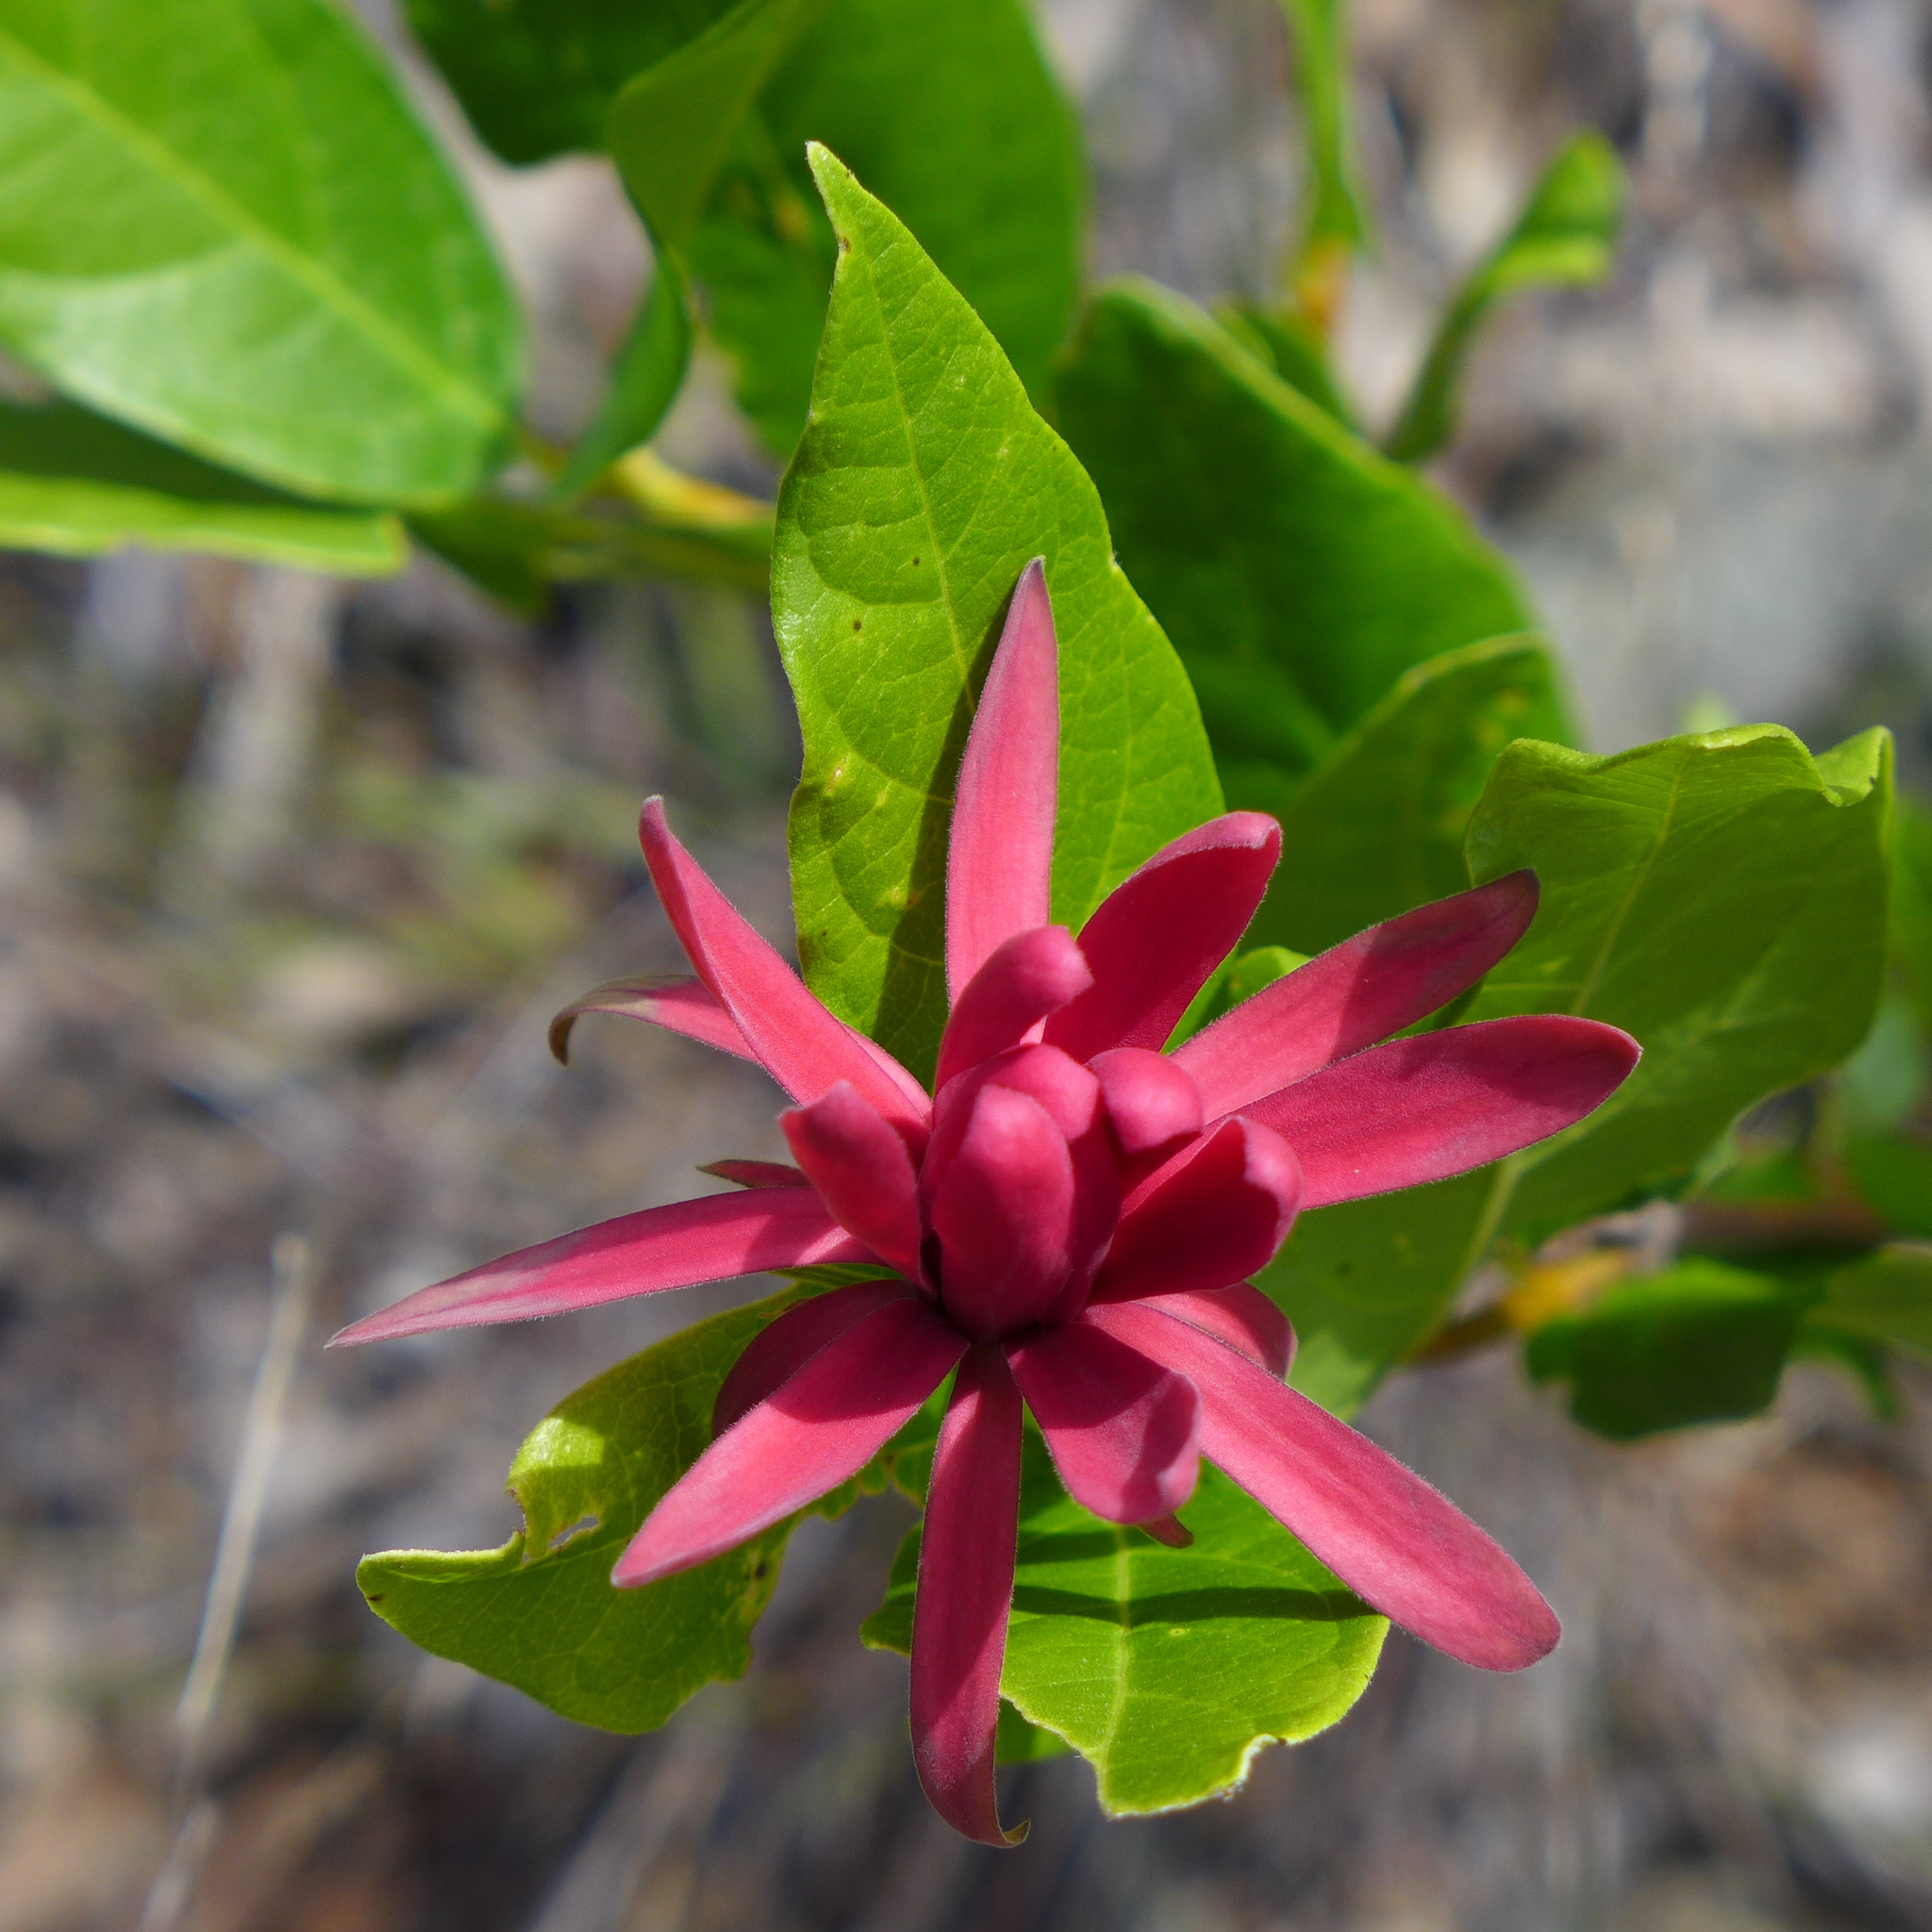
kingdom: Plantae
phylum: Tracheophyta
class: Magnoliopsida
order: Laurales
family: Calycanthaceae
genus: Calycanthus
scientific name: Calycanthus occidentalis
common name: California spicebush
